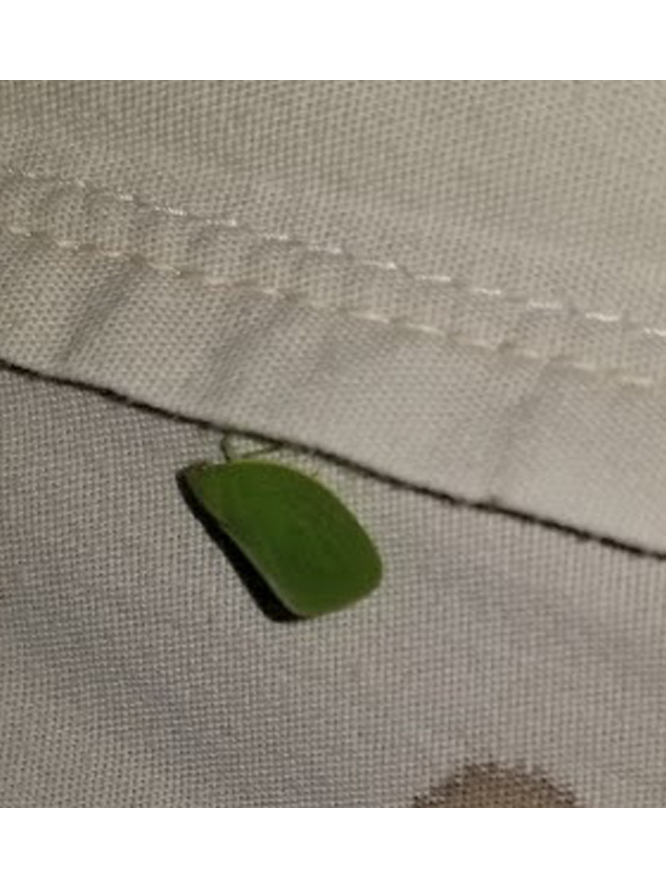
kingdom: Animalia
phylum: Arthropoda
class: Insecta
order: Hemiptera
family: Acanaloniidae
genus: Acanalonia
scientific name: Acanalonia conica
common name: Green cone-headed planthopper
